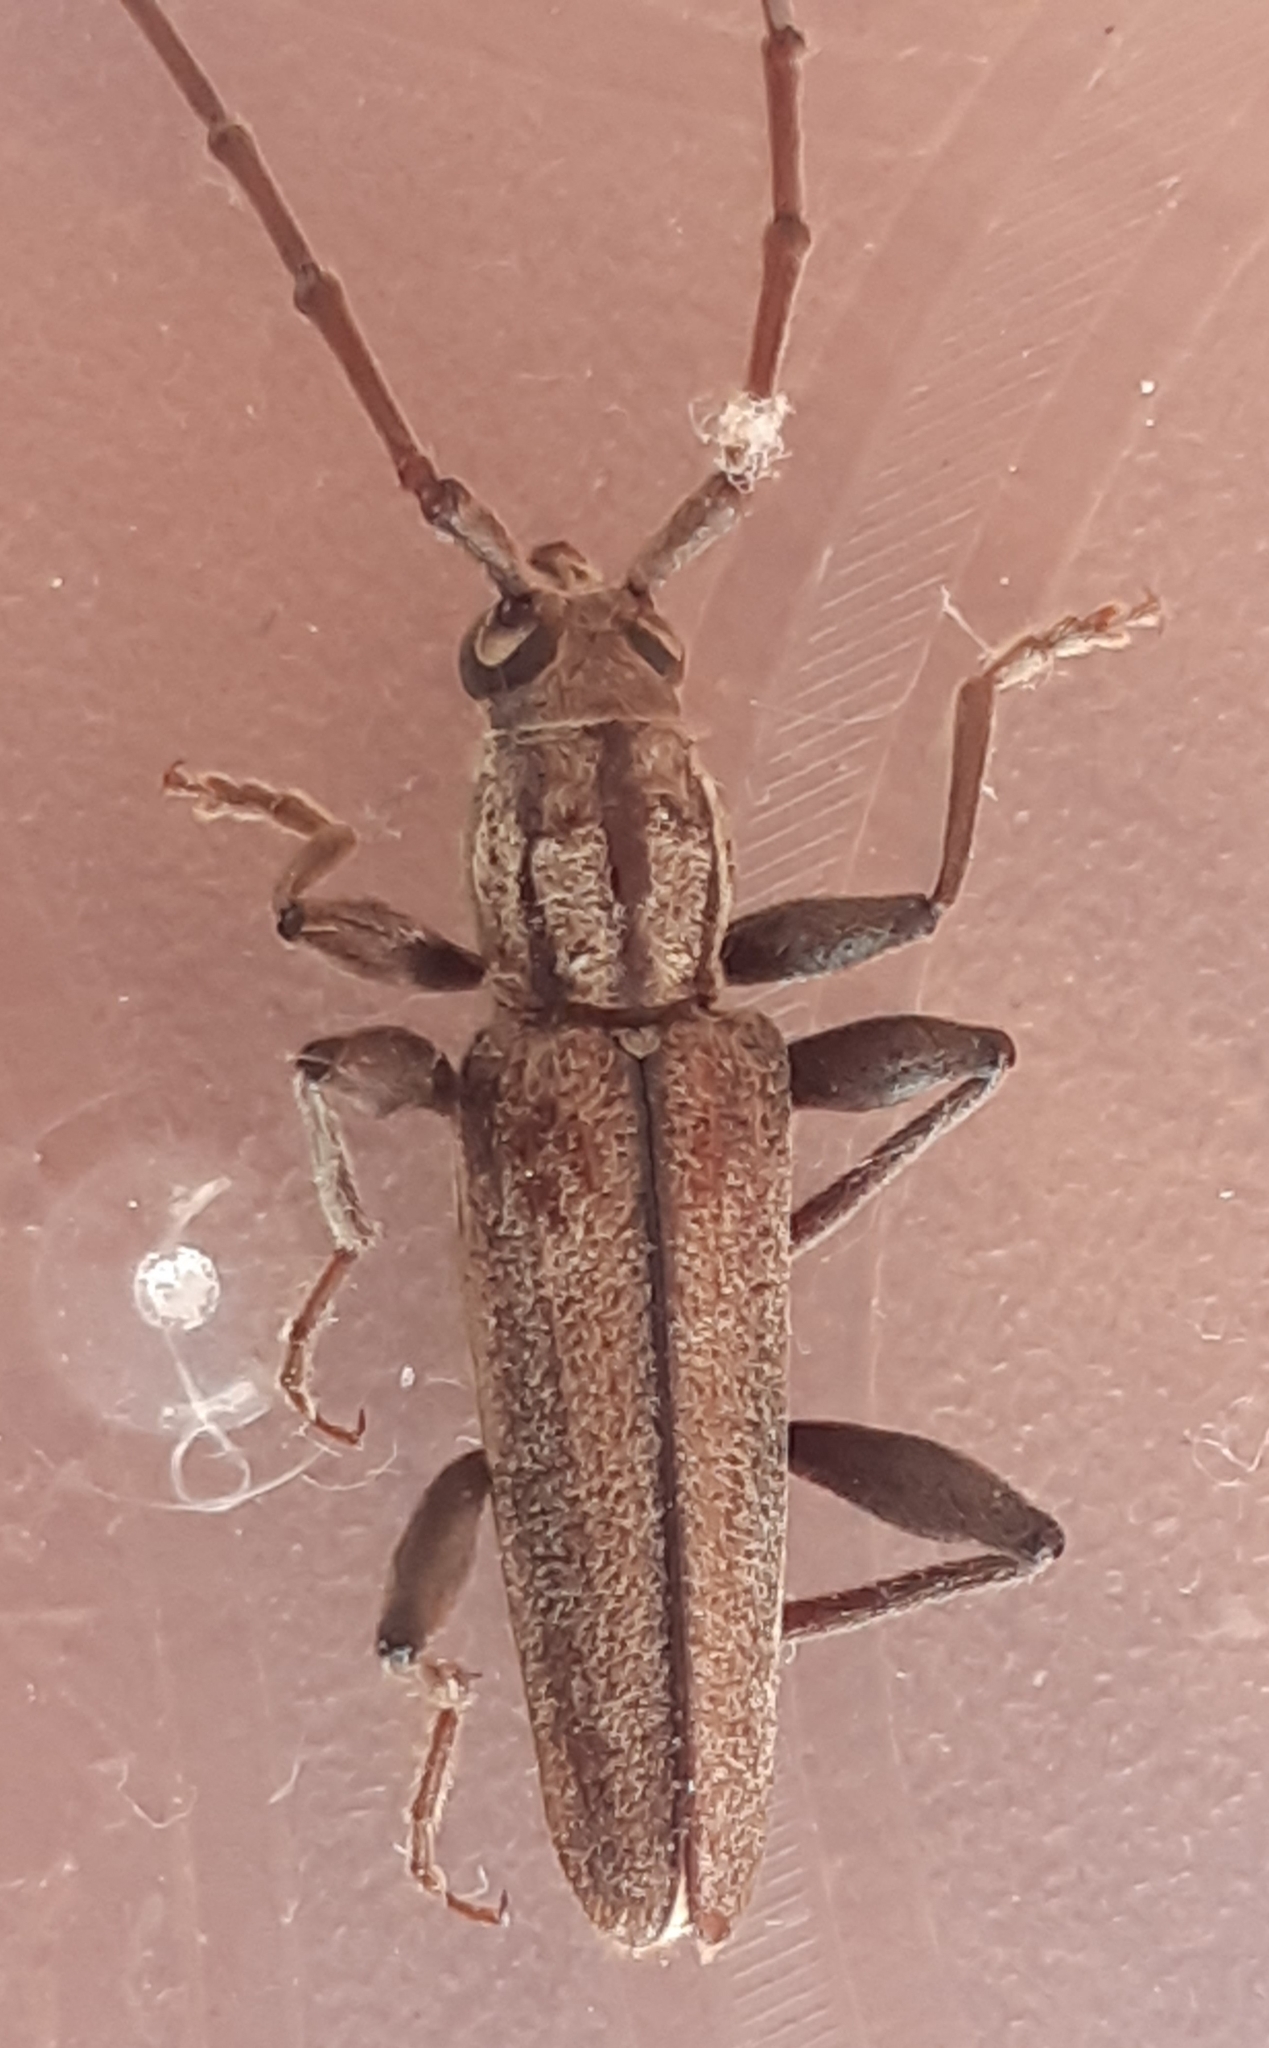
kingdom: Animalia
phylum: Arthropoda
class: Insecta
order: Coleoptera
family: Cerambycidae
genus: Icosium
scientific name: Icosium tomentosum
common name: Longhorn beetle
